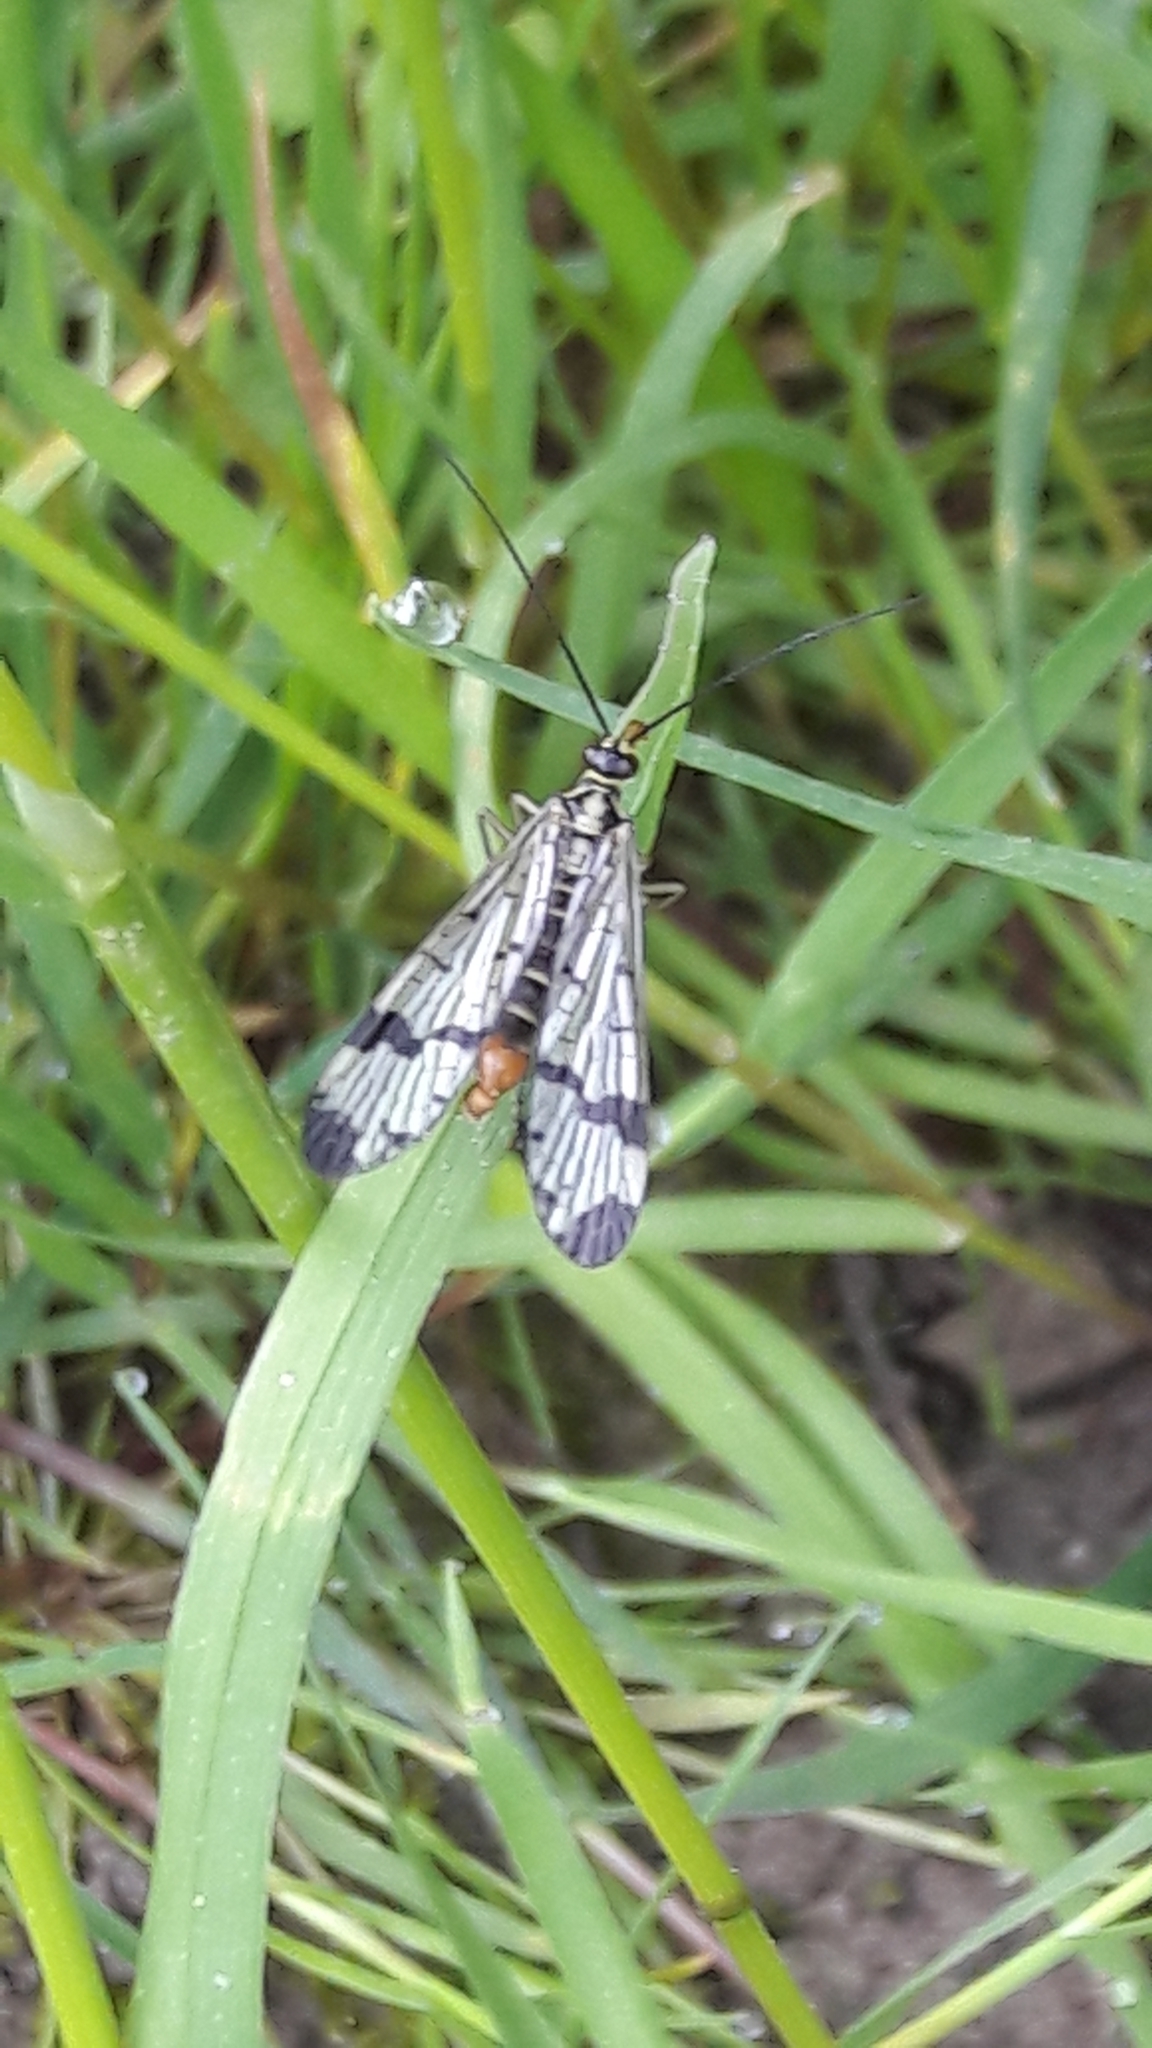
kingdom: Animalia
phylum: Arthropoda
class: Insecta
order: Mecoptera
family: Panorpidae
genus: Panorpa
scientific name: Panorpa communis
